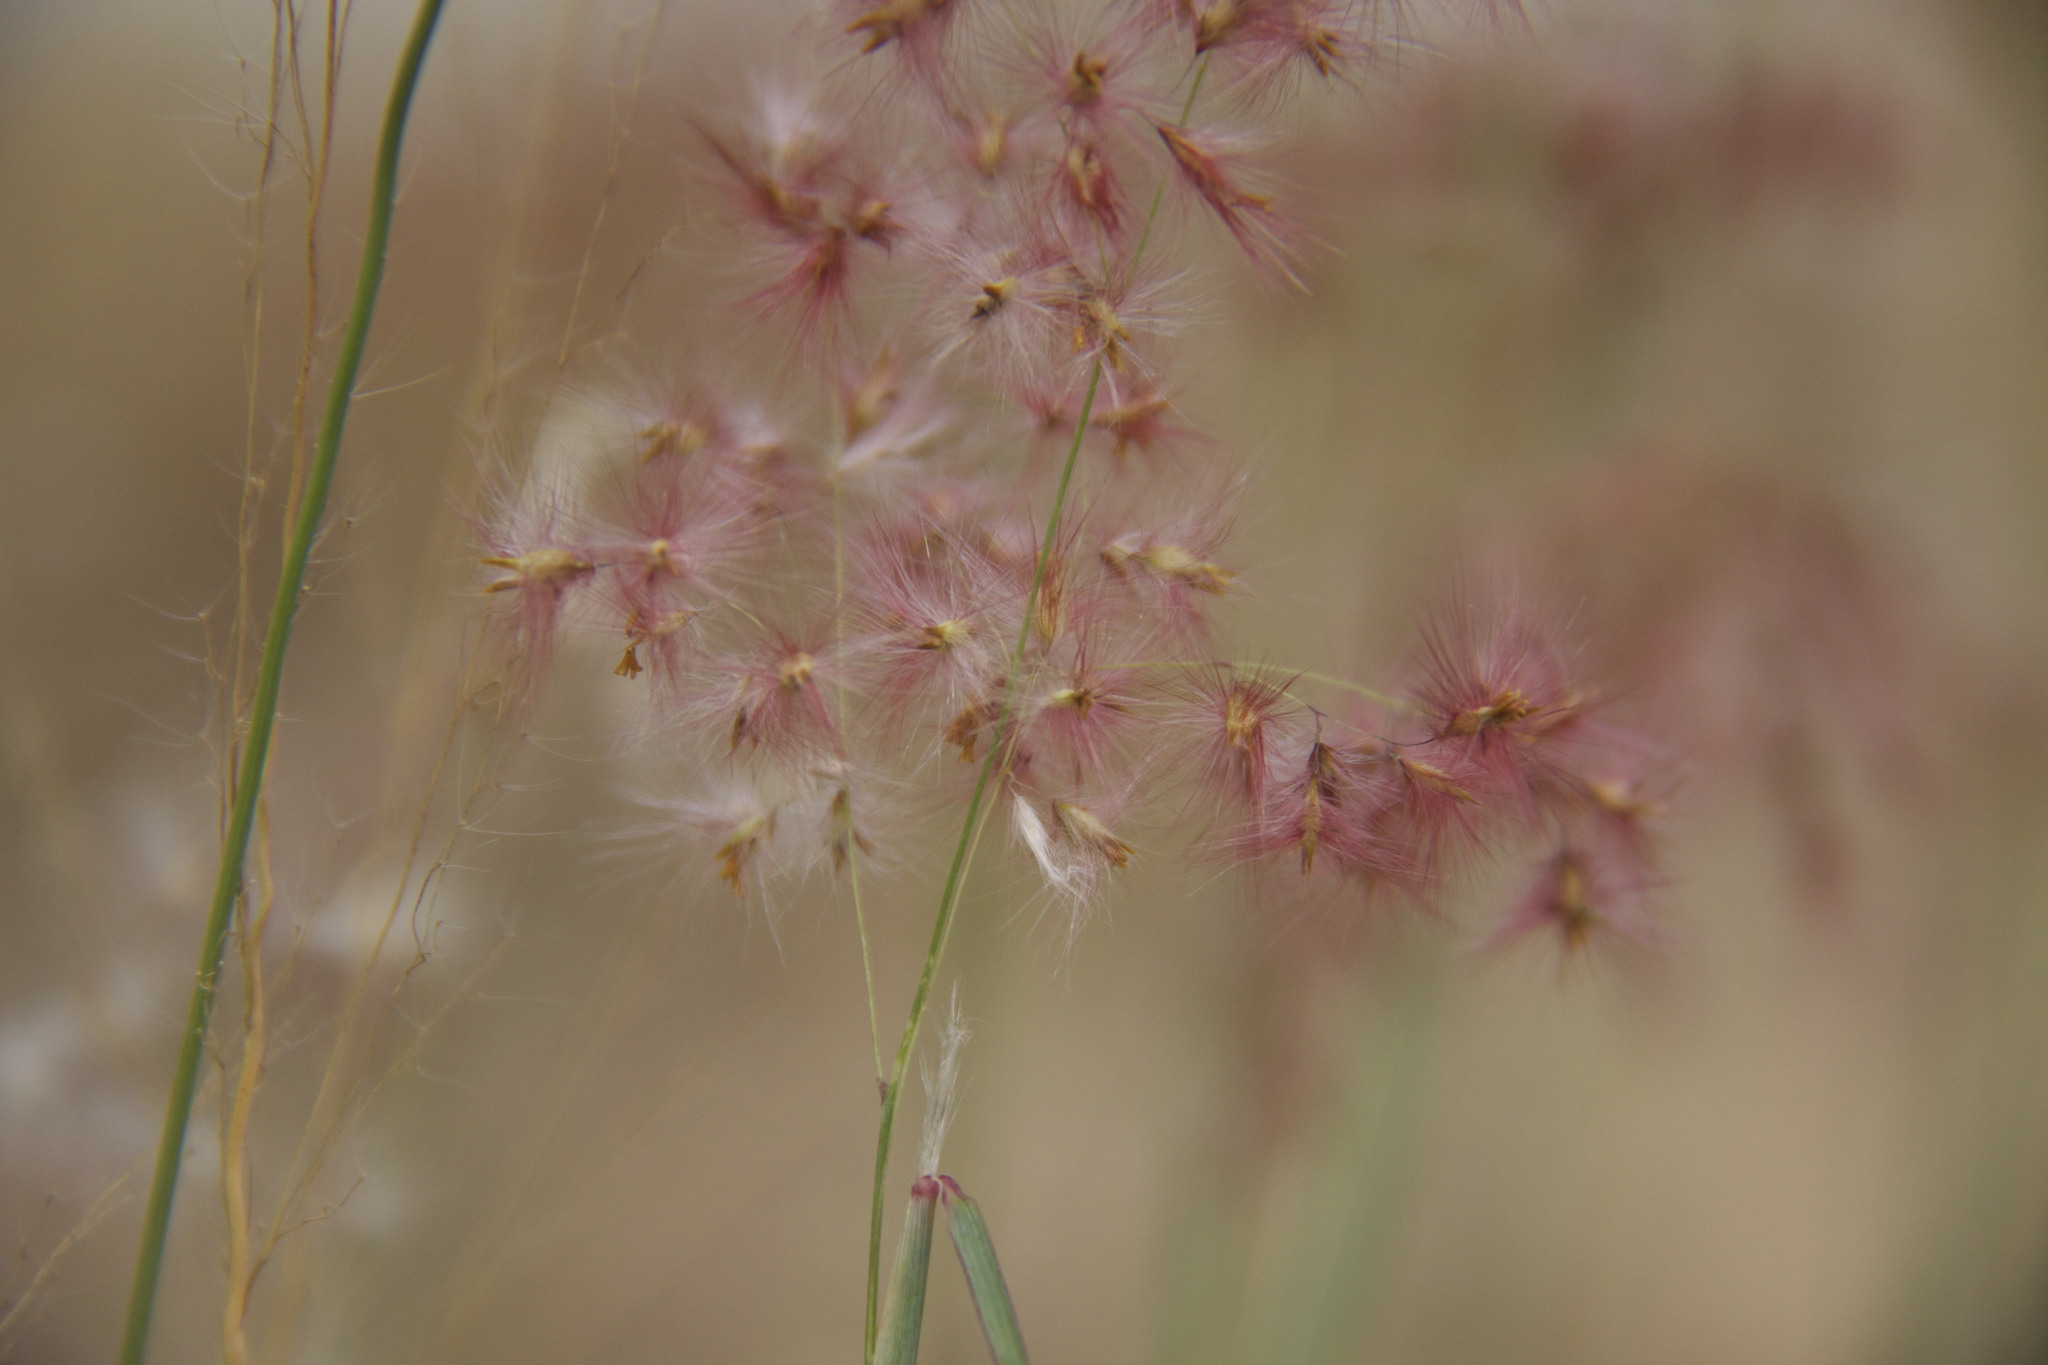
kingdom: Plantae
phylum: Tracheophyta
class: Liliopsida
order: Poales
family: Poaceae
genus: Melinis
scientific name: Melinis repens
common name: Rose natal grass
